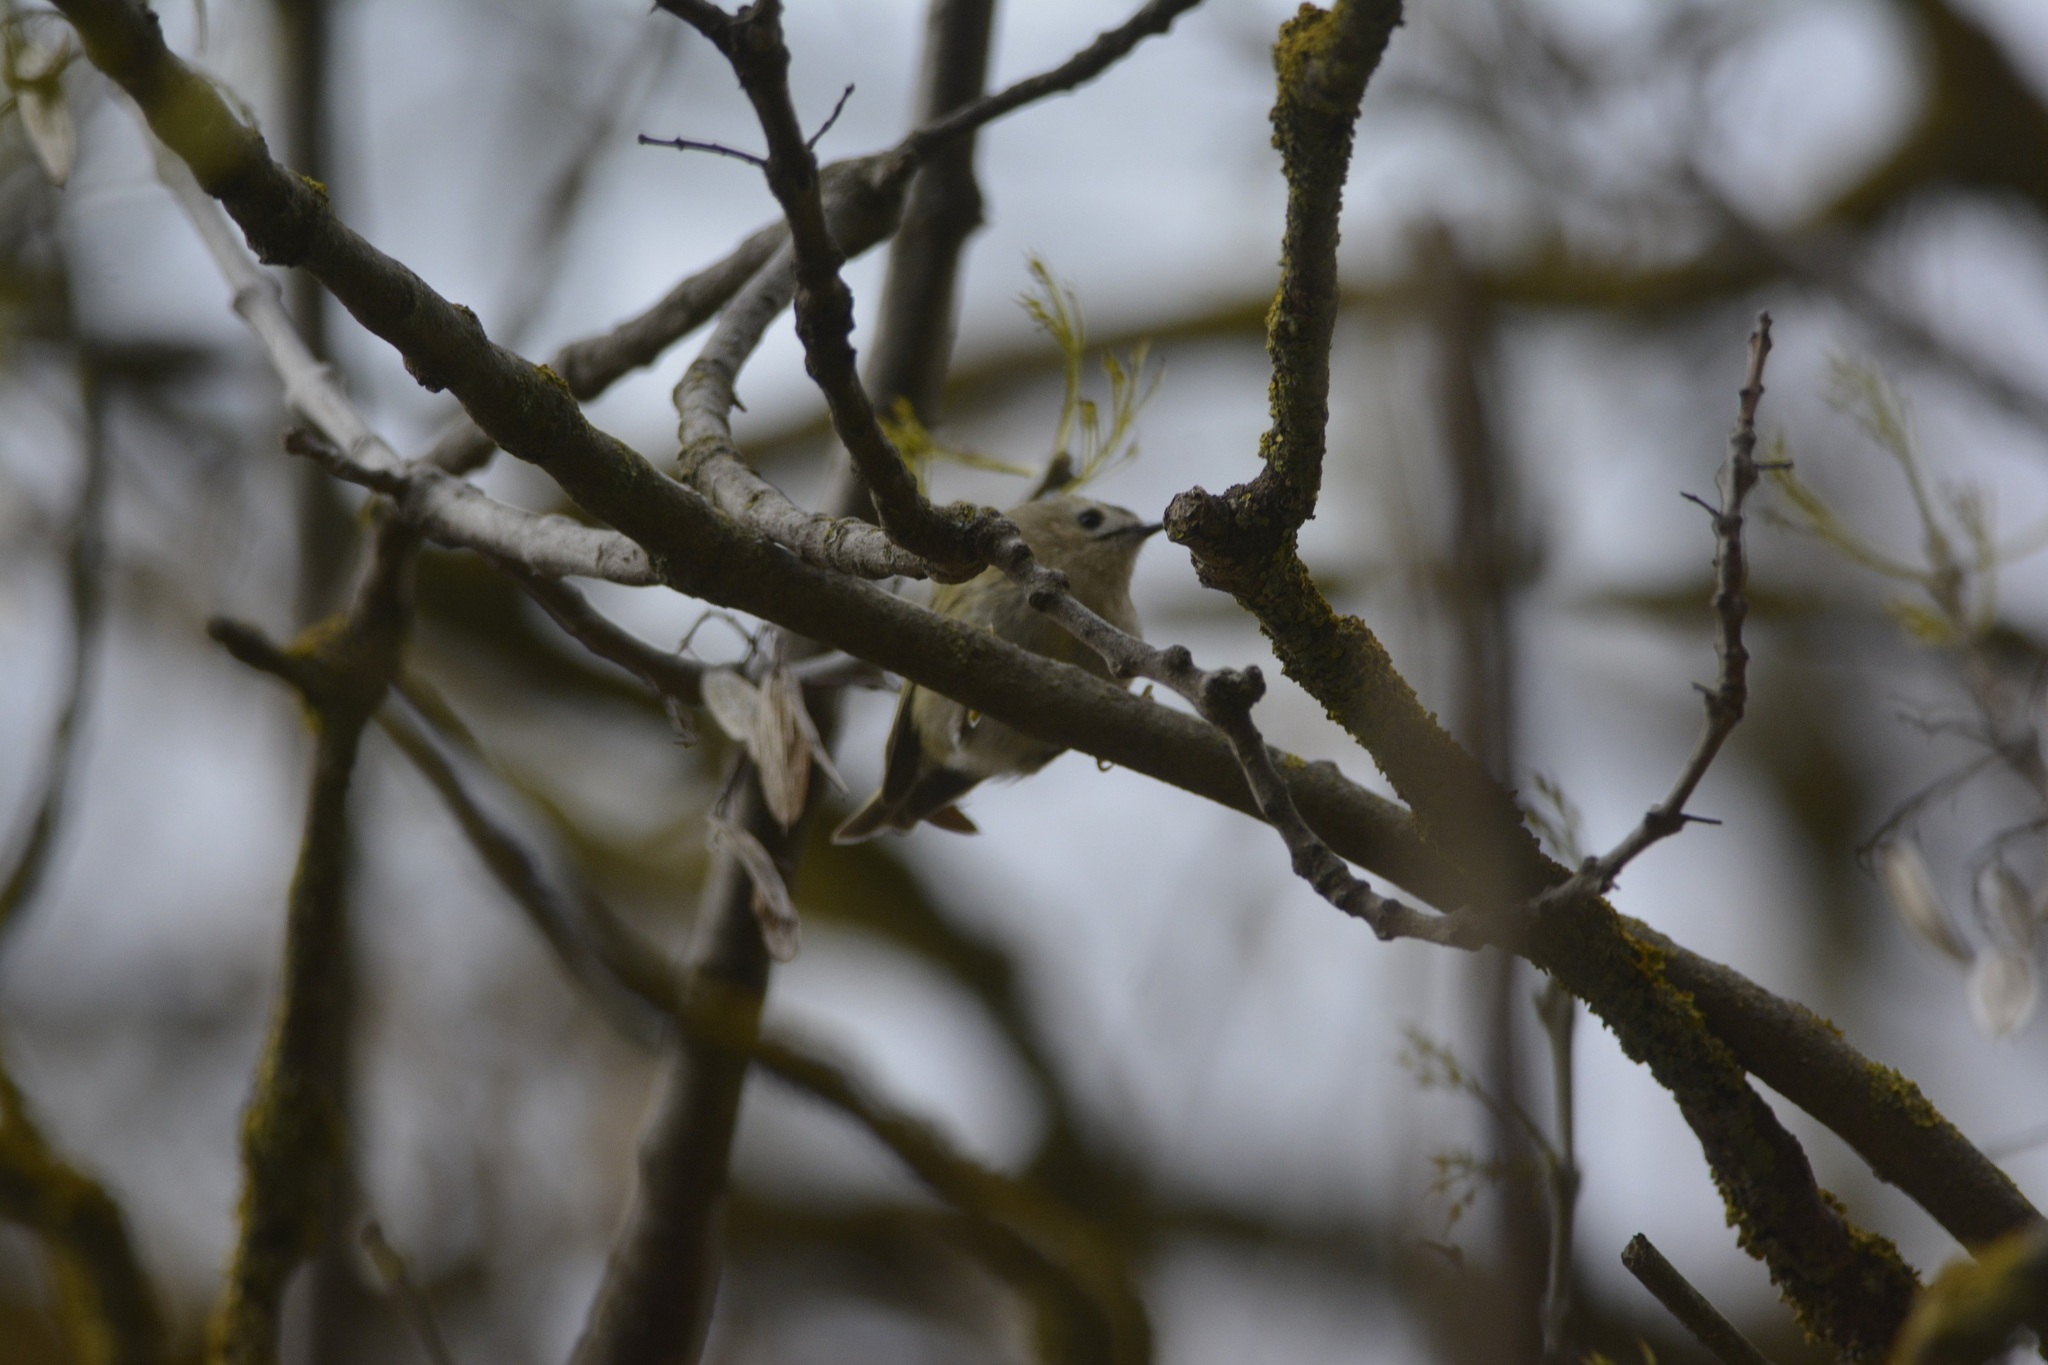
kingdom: Animalia
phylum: Chordata
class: Aves
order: Passeriformes
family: Regulidae
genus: Regulus
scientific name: Regulus regulus
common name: Goldcrest
